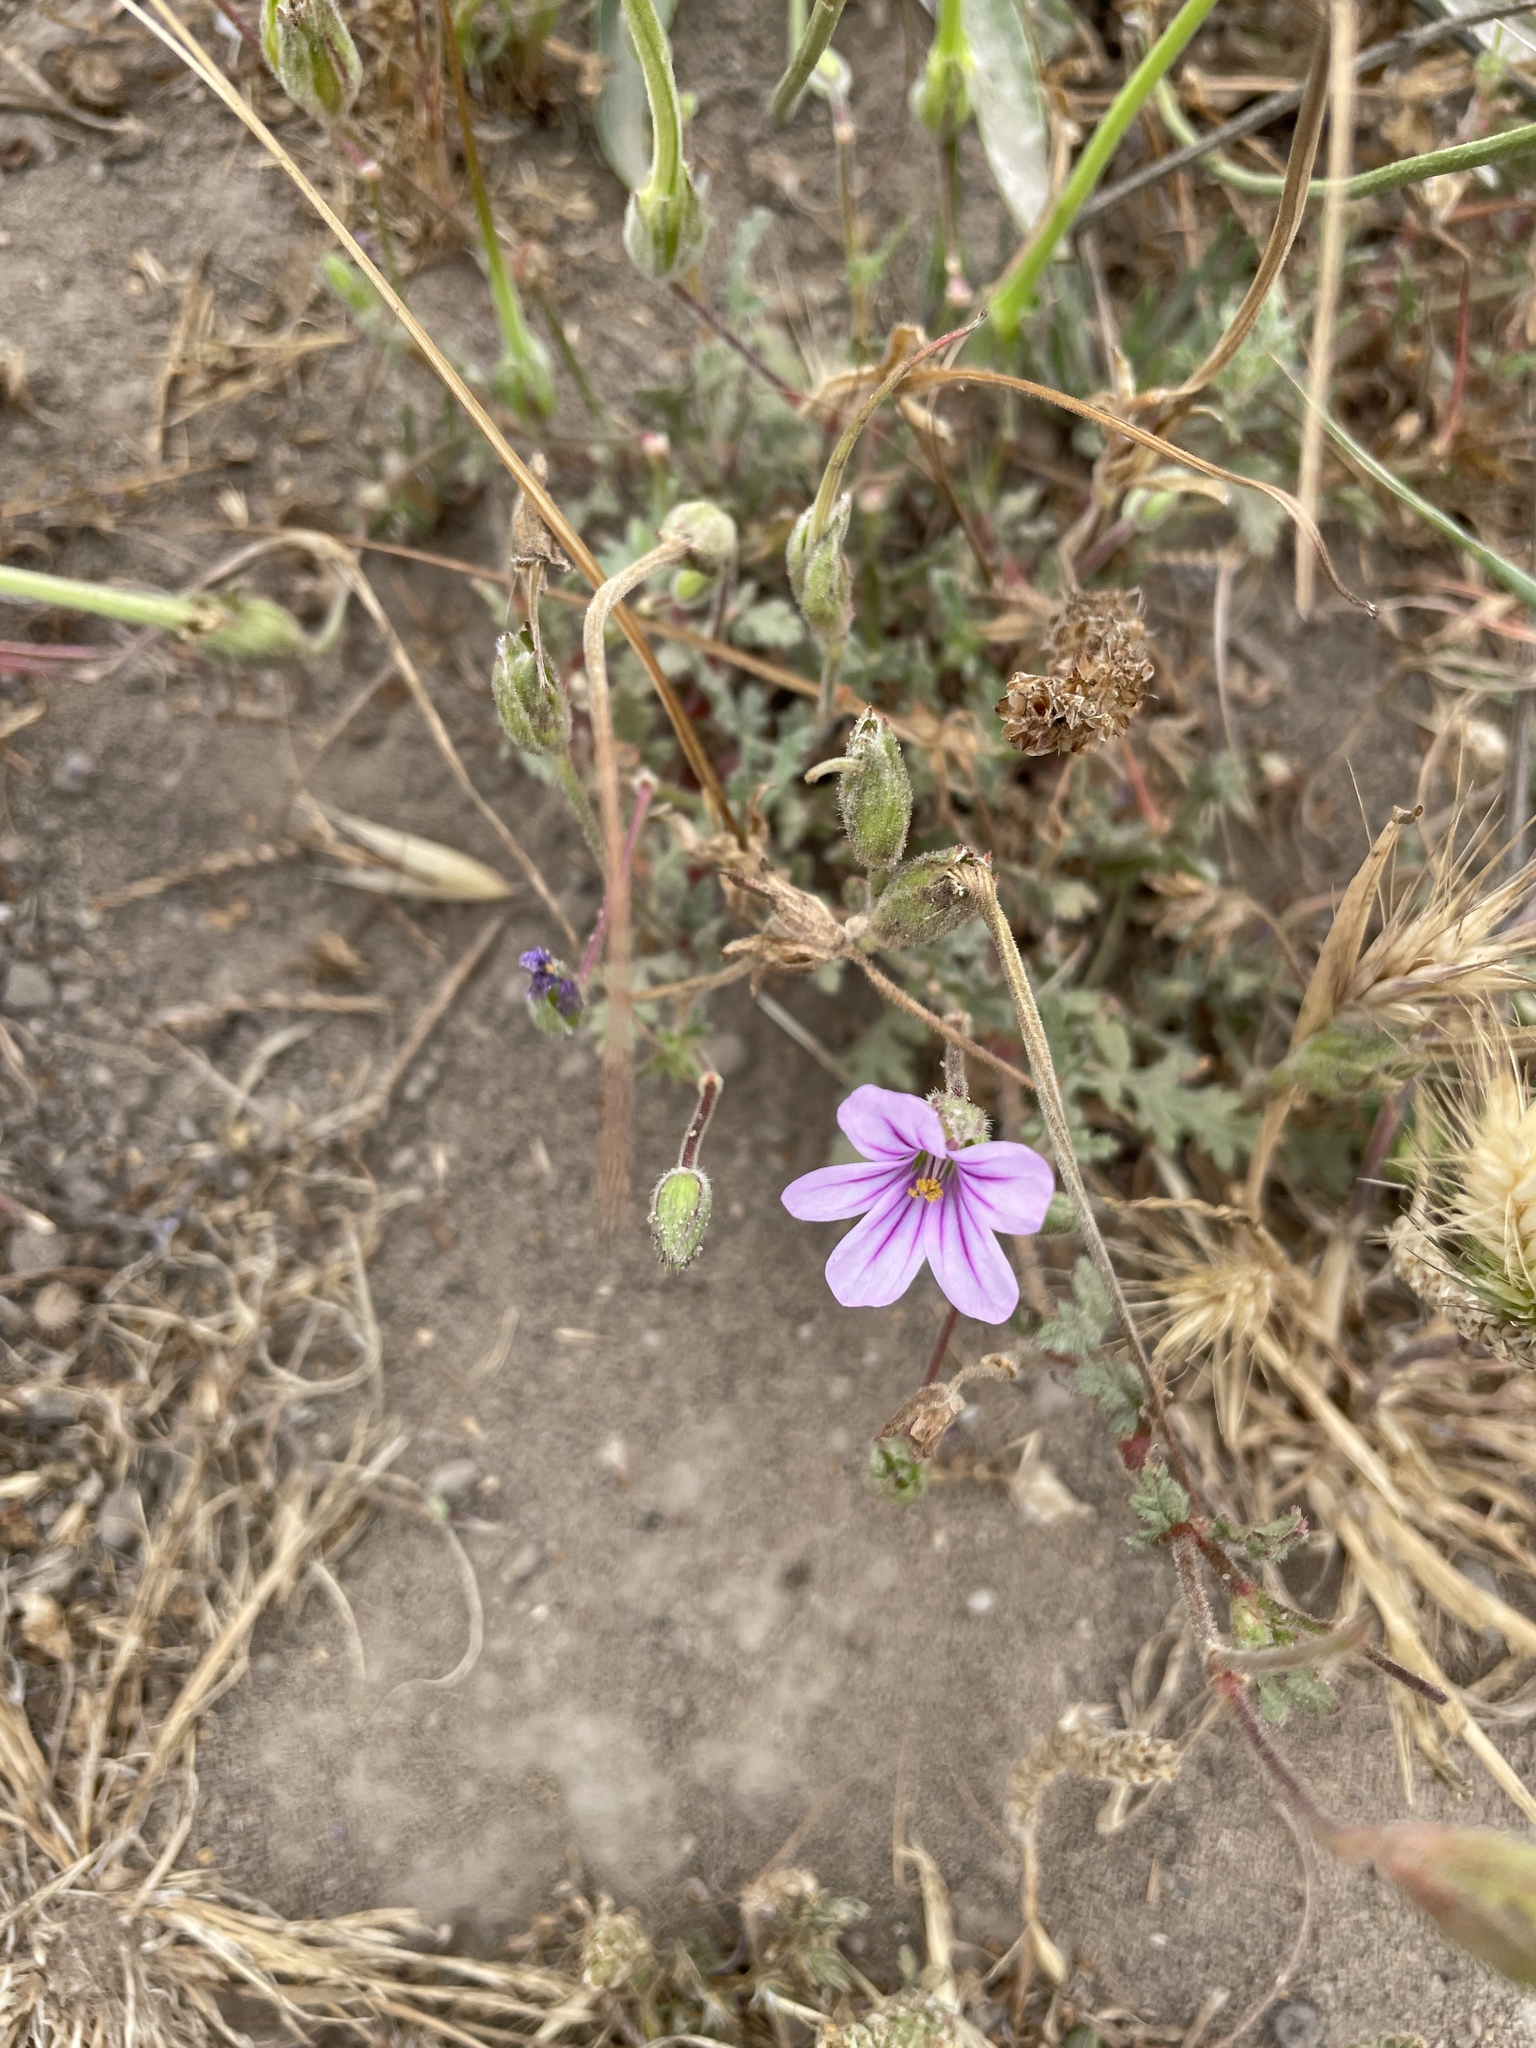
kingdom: Plantae
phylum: Tracheophyta
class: Magnoliopsida
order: Geraniales
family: Geraniaceae
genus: Erodium
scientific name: Erodium botrys
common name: Mediterranean stork's-bill
